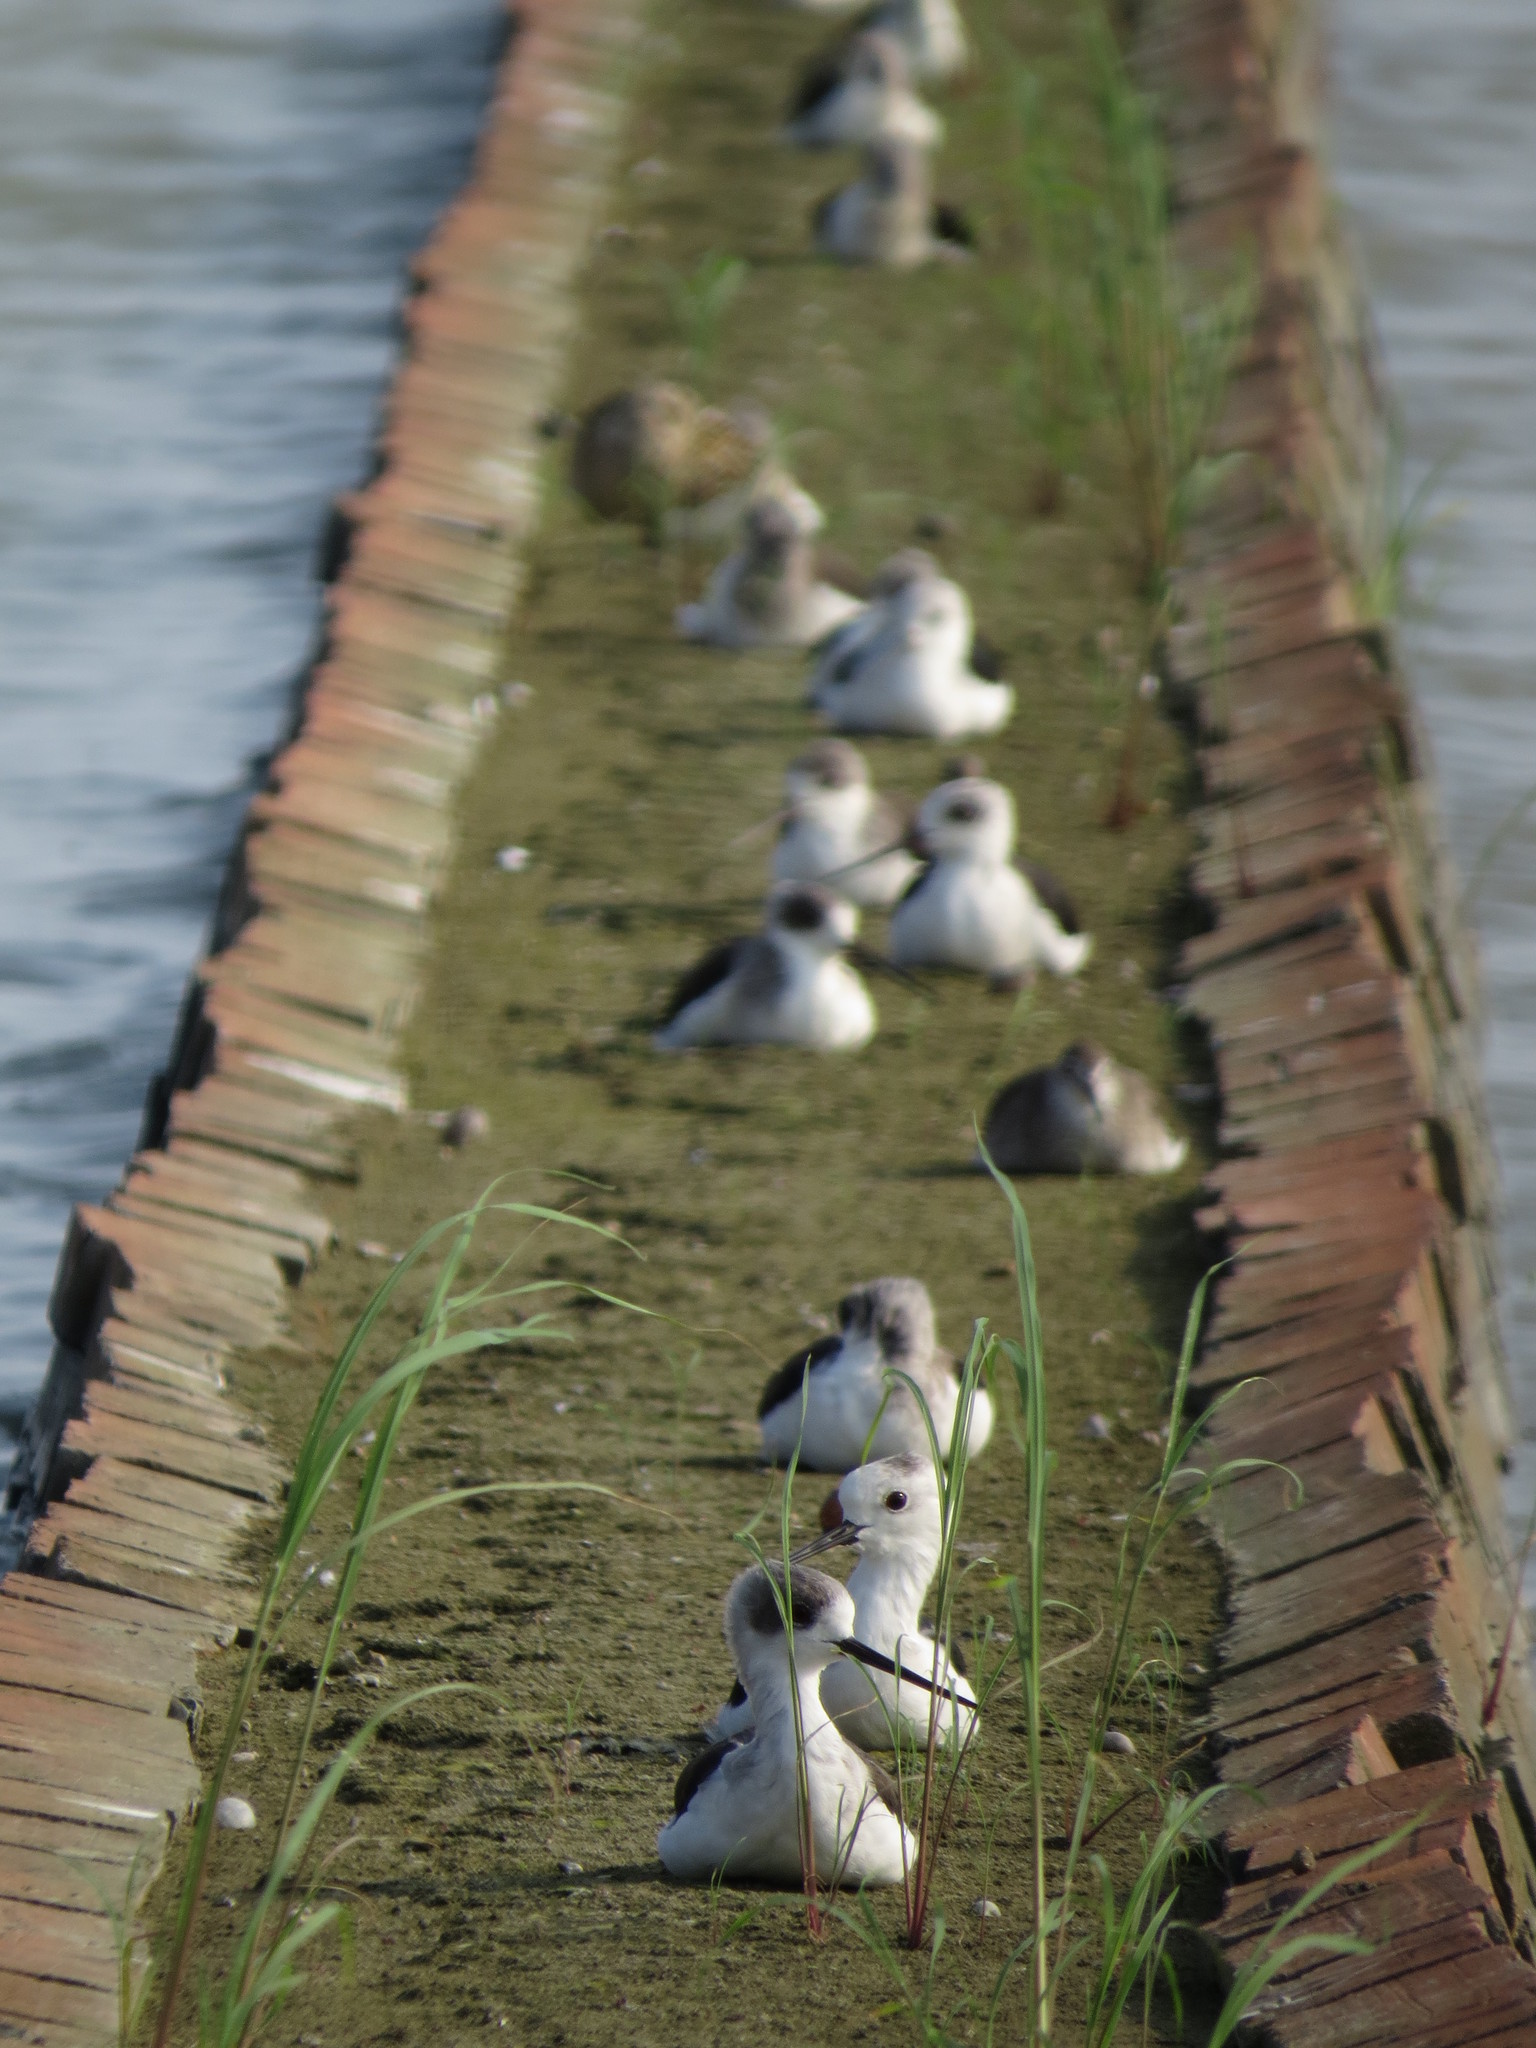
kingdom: Animalia
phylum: Chordata
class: Aves
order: Charadriiformes
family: Recurvirostridae
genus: Himantopus
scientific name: Himantopus himantopus
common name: Black-winged stilt
